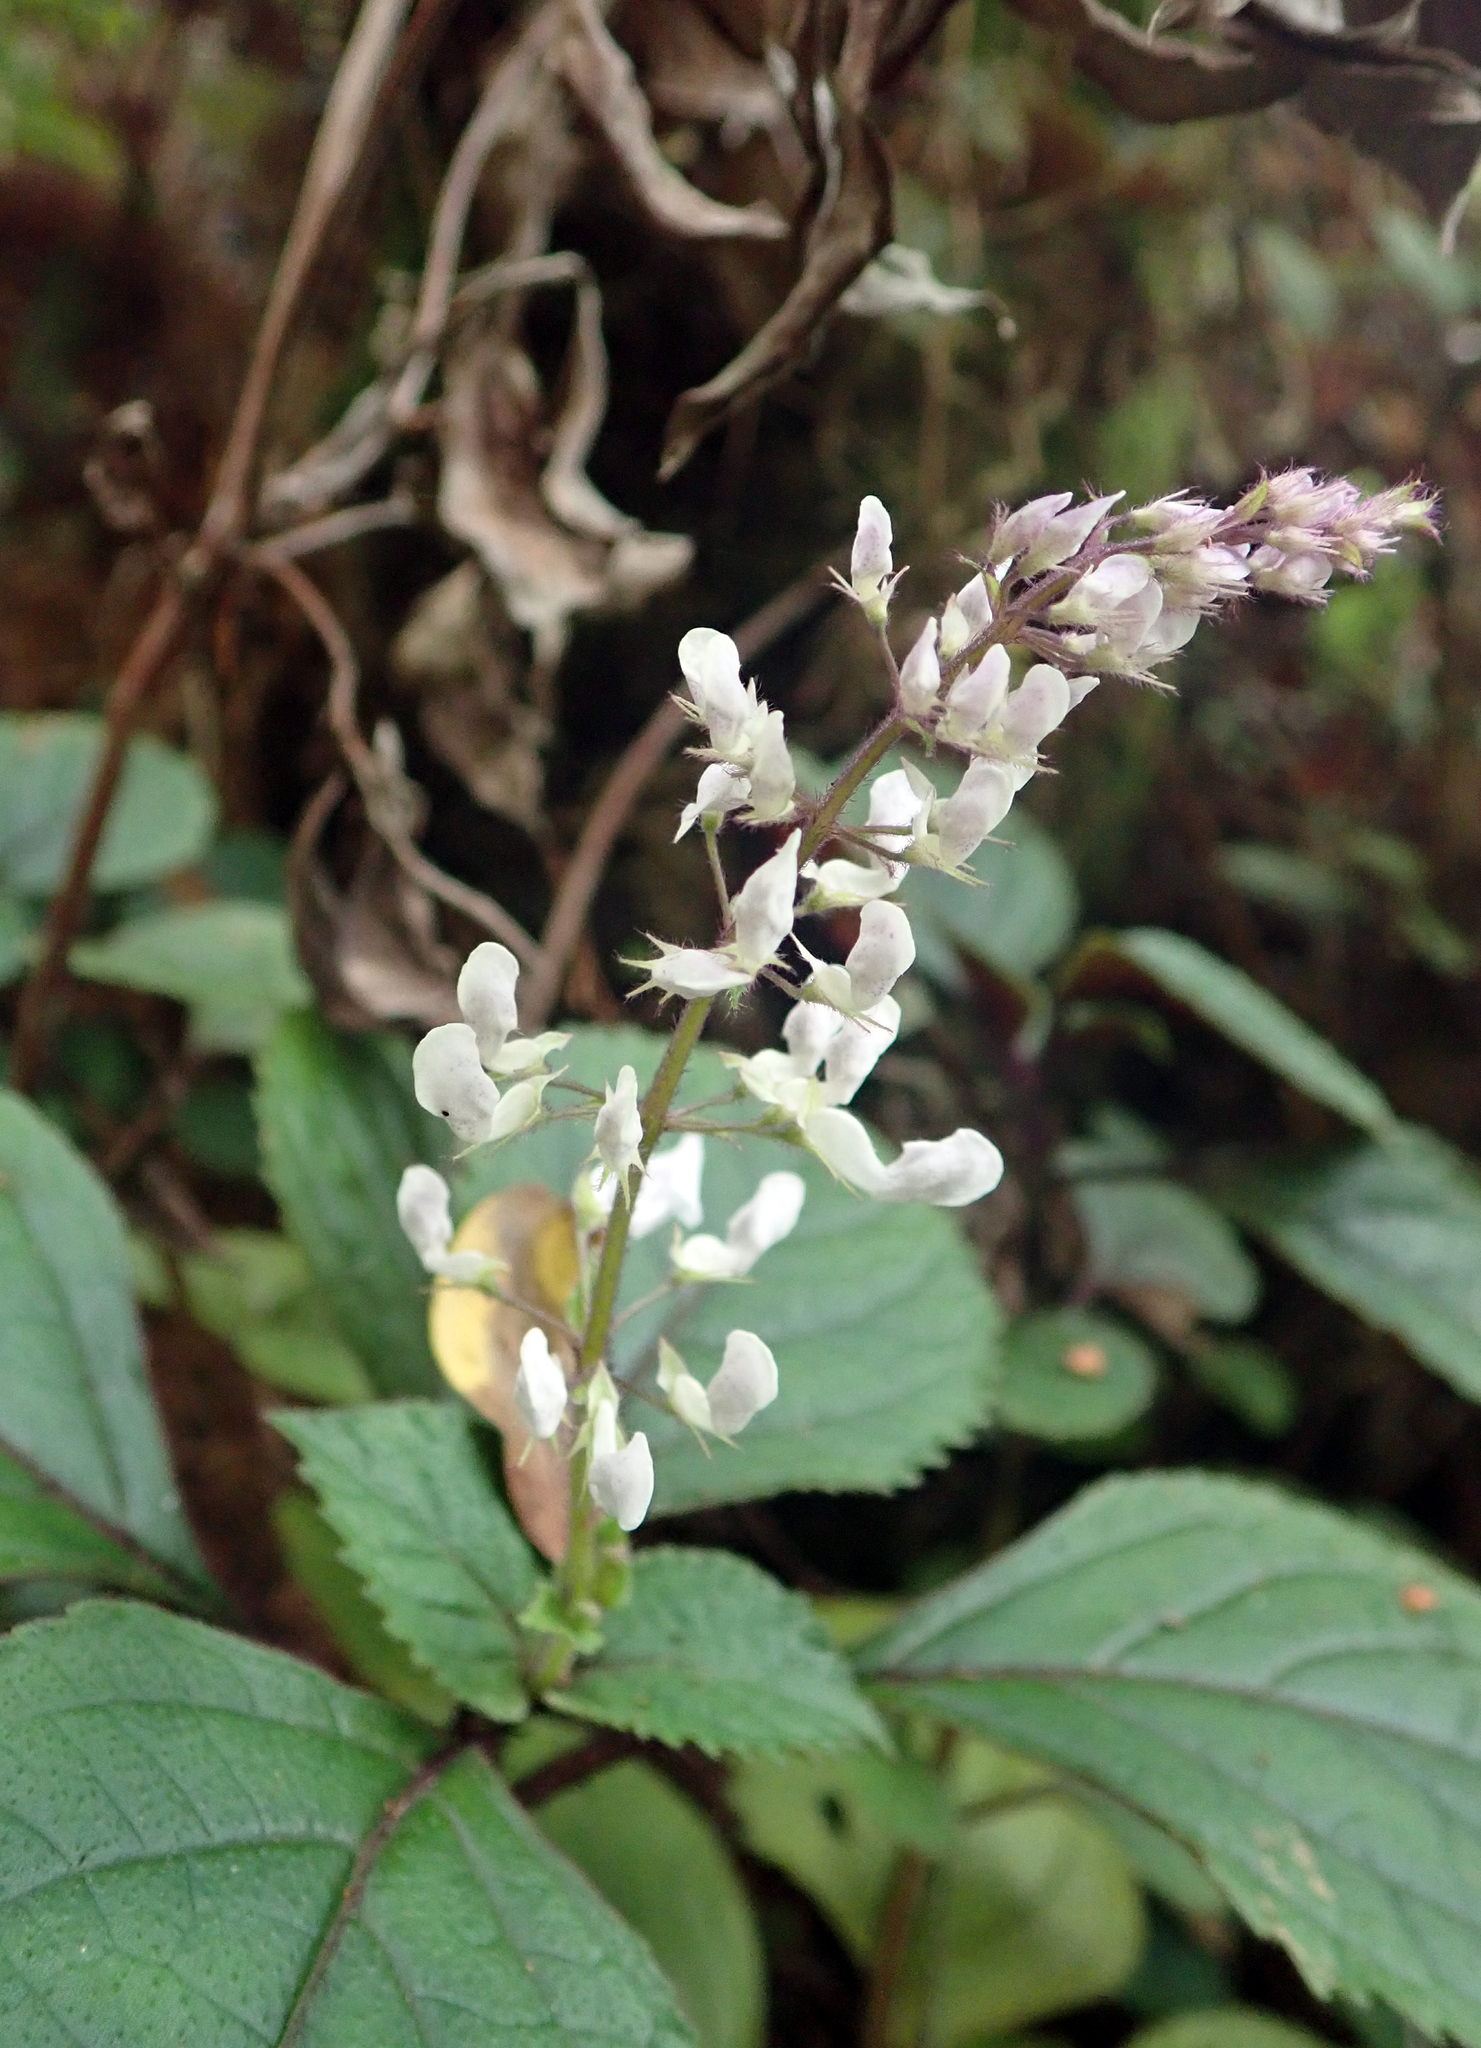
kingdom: Plantae
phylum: Tracheophyta
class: Magnoliopsida
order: Lamiales
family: Lamiaceae
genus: Plectranthus
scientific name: Plectranthus ciliatus
